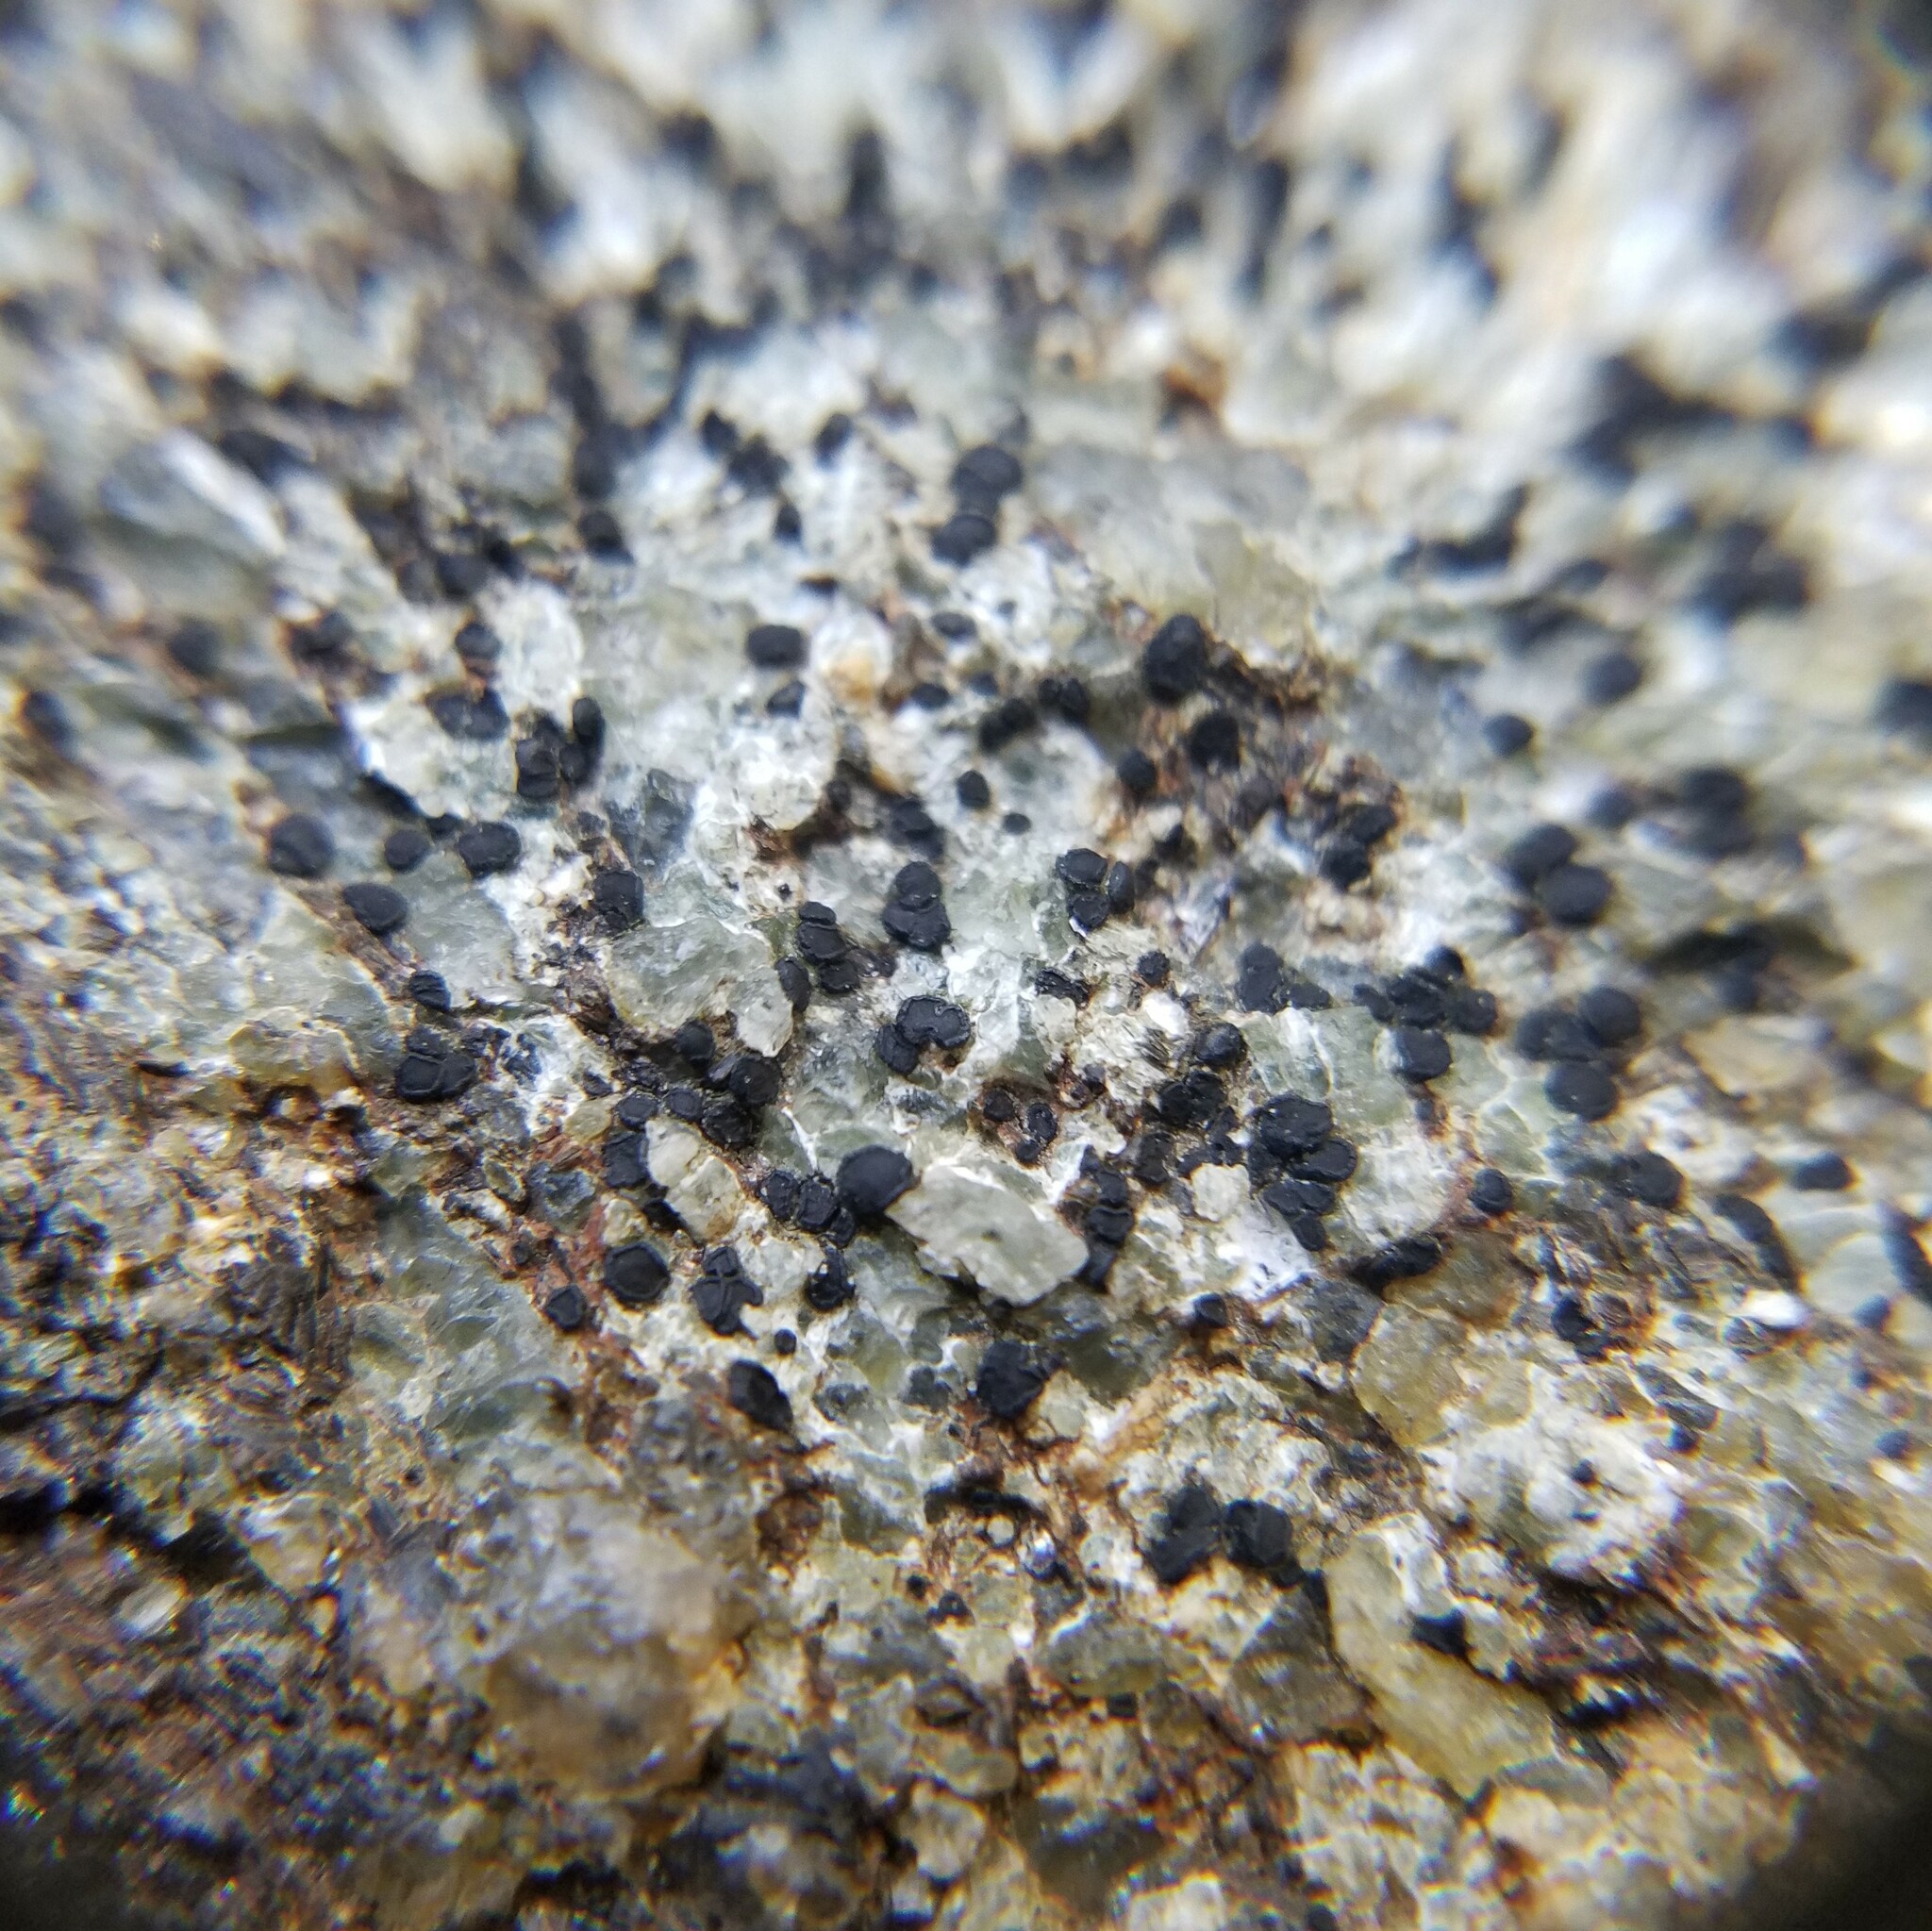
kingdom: Fungi
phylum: Ascomycota
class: Lecanoromycetes
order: Lecideales
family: Lecideaceae
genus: Porpidia
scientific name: Porpidia subsimplex
